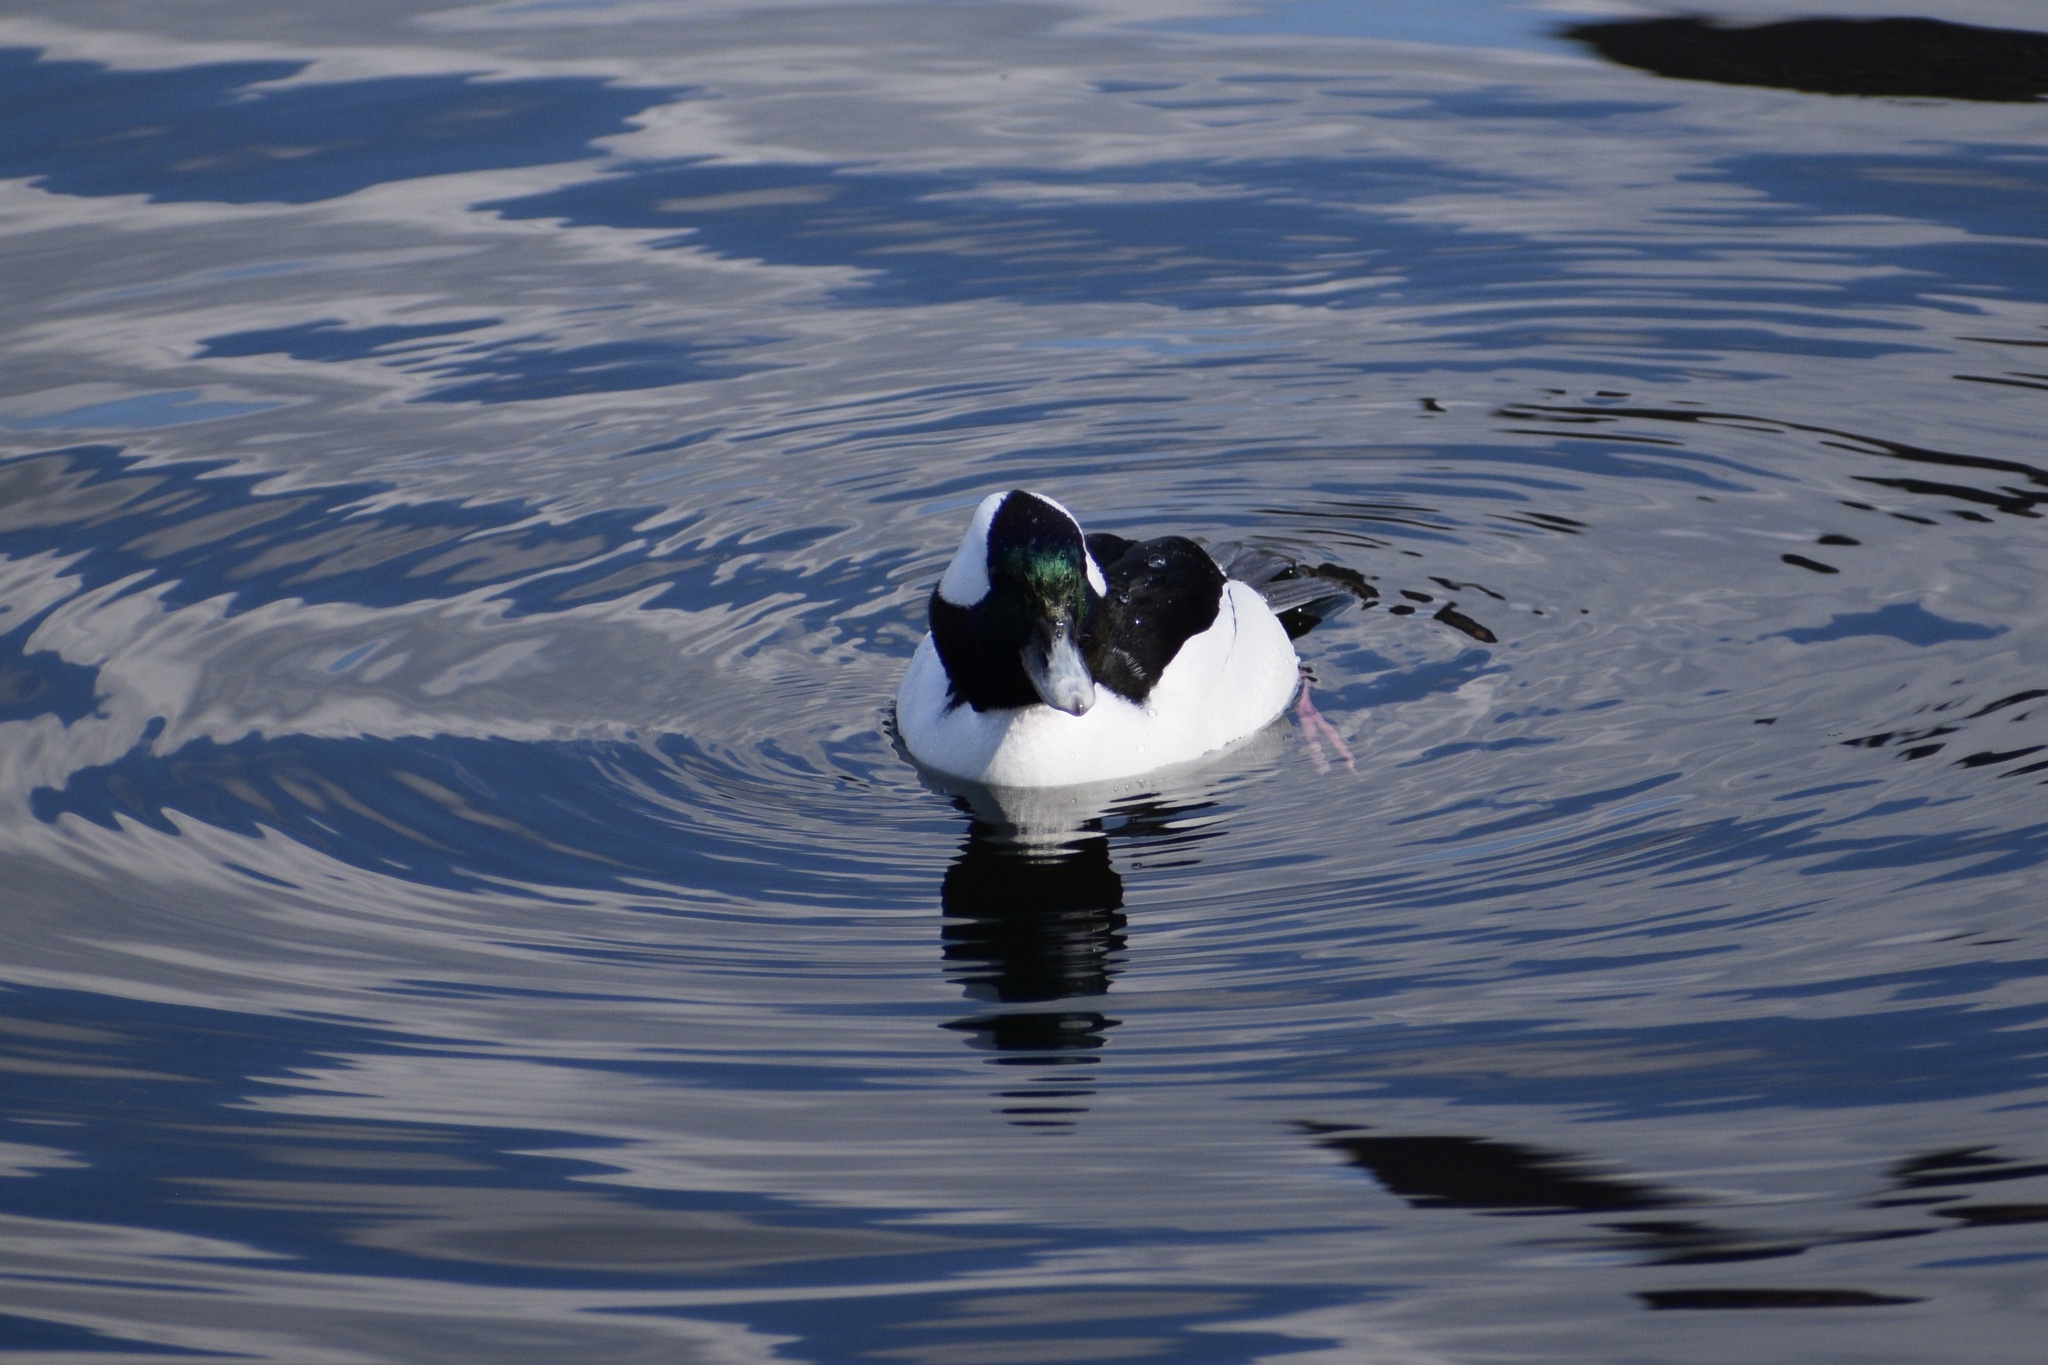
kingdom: Animalia
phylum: Chordata
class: Aves
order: Anseriformes
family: Anatidae
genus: Bucephala
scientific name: Bucephala albeola
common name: Bufflehead
